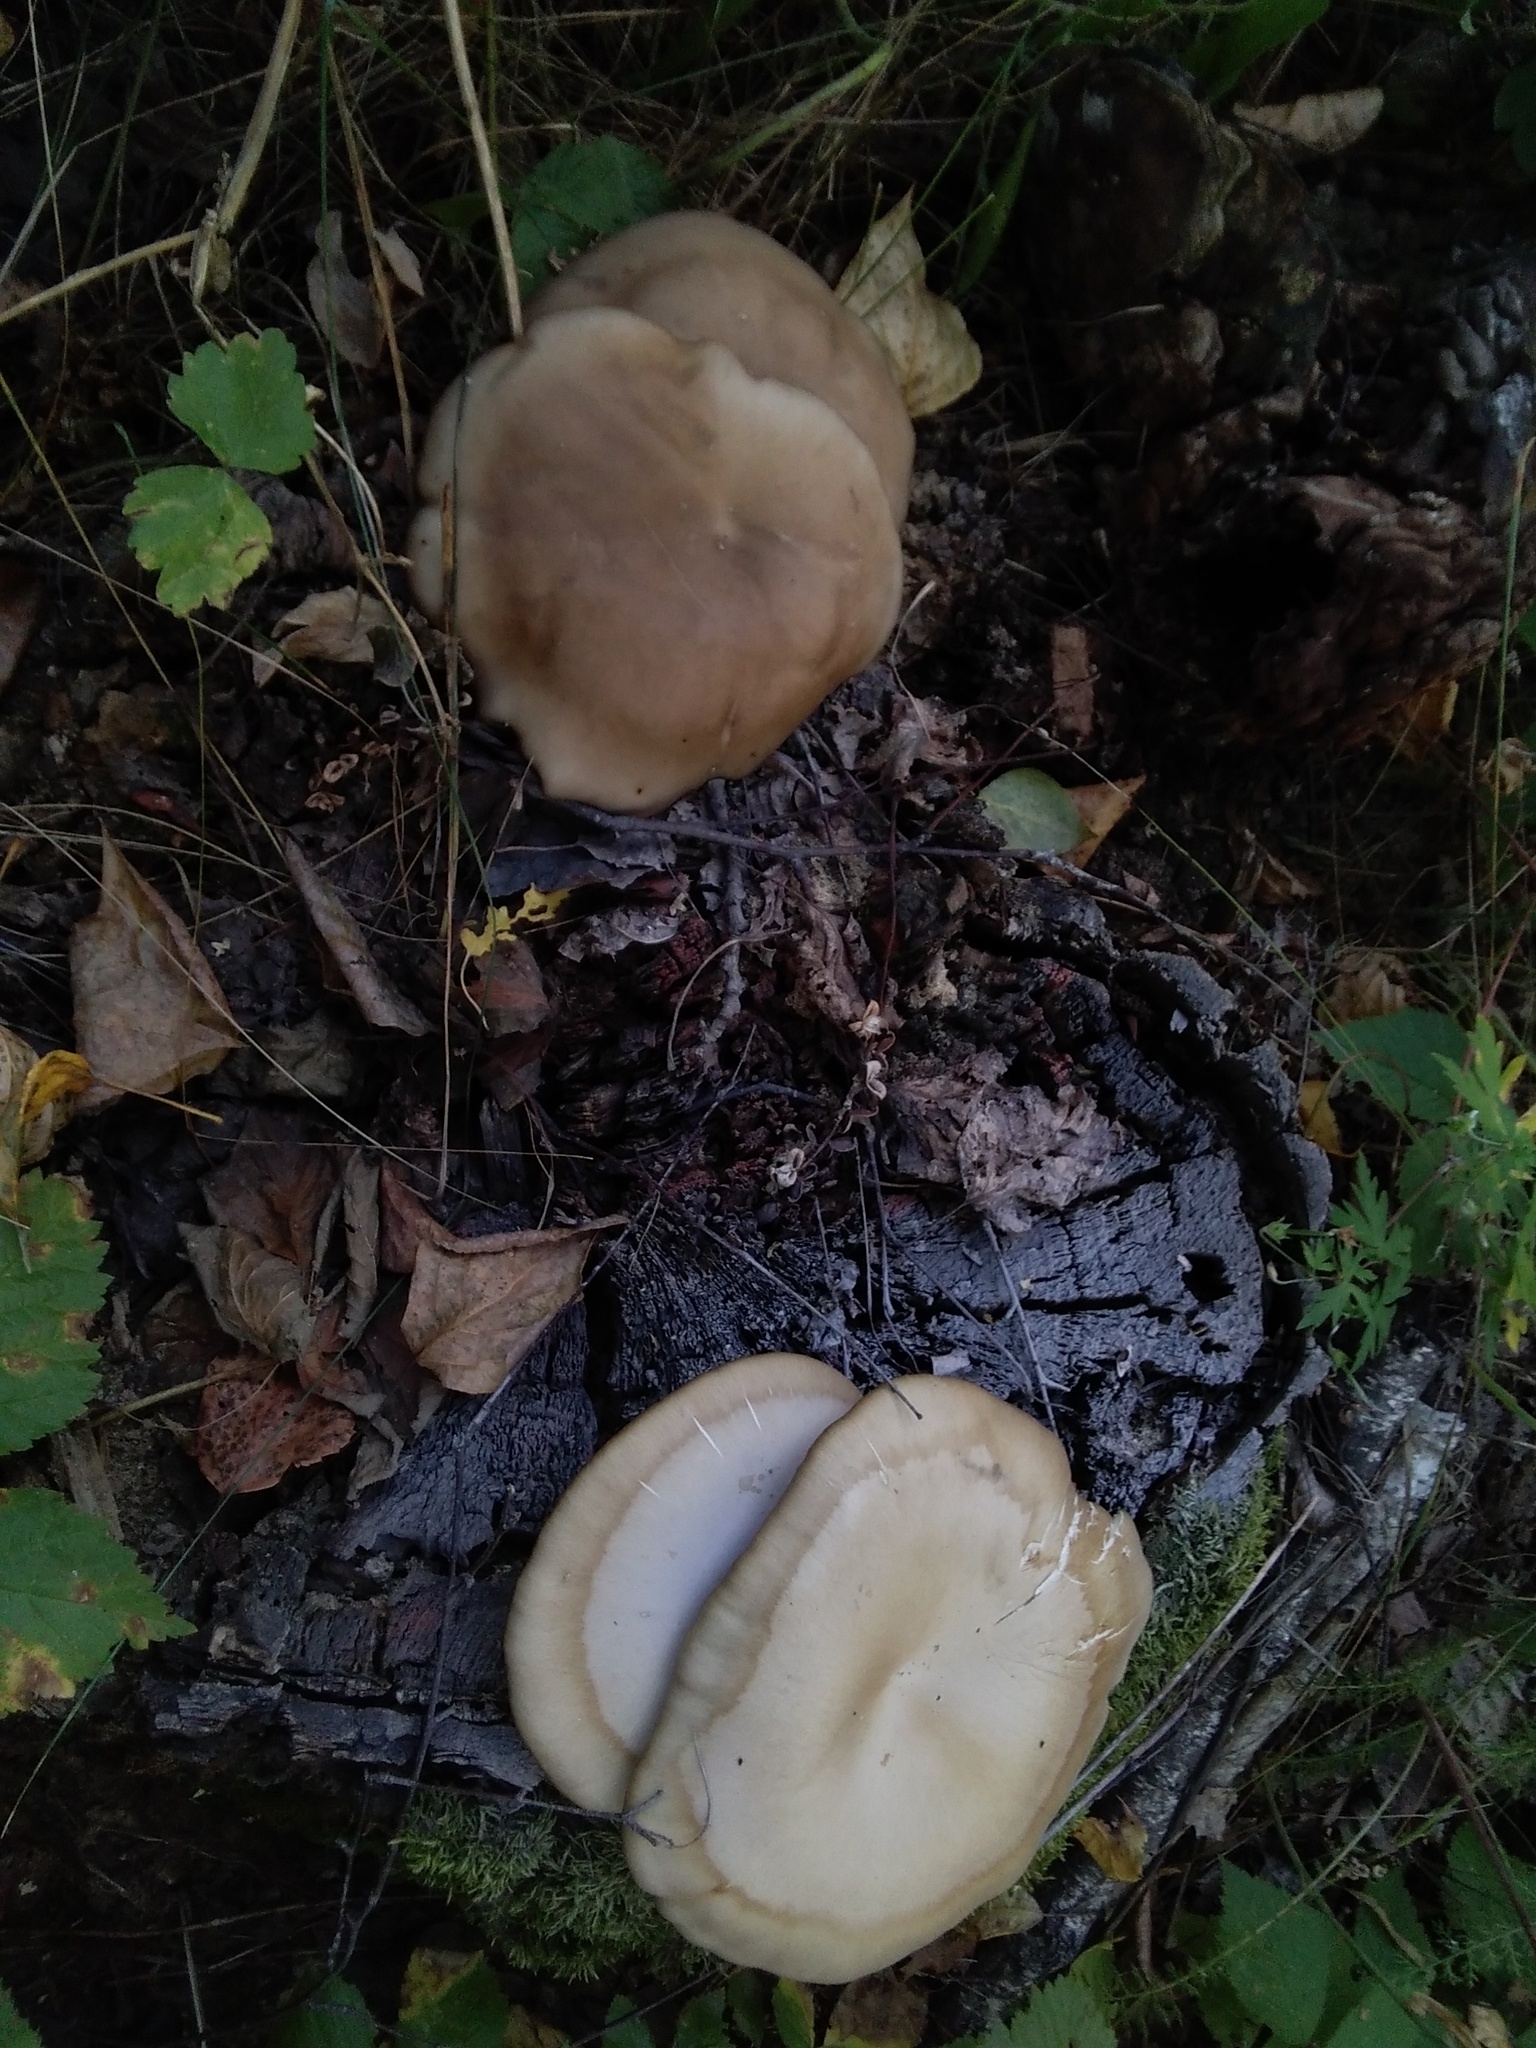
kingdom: Fungi
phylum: Basidiomycota
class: Agaricomycetes
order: Agaricales
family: Pleurotaceae
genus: Pleurotus
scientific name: Pleurotus ostreatus
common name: Oyster mushroom
